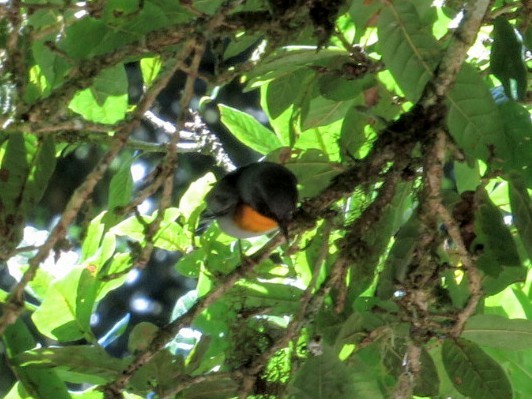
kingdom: Animalia
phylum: Chordata
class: Aves
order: Passeriformes
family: Parulidae
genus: Oreothlypis
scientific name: Oreothlypis gutturalis
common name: Flame-throated warbler
